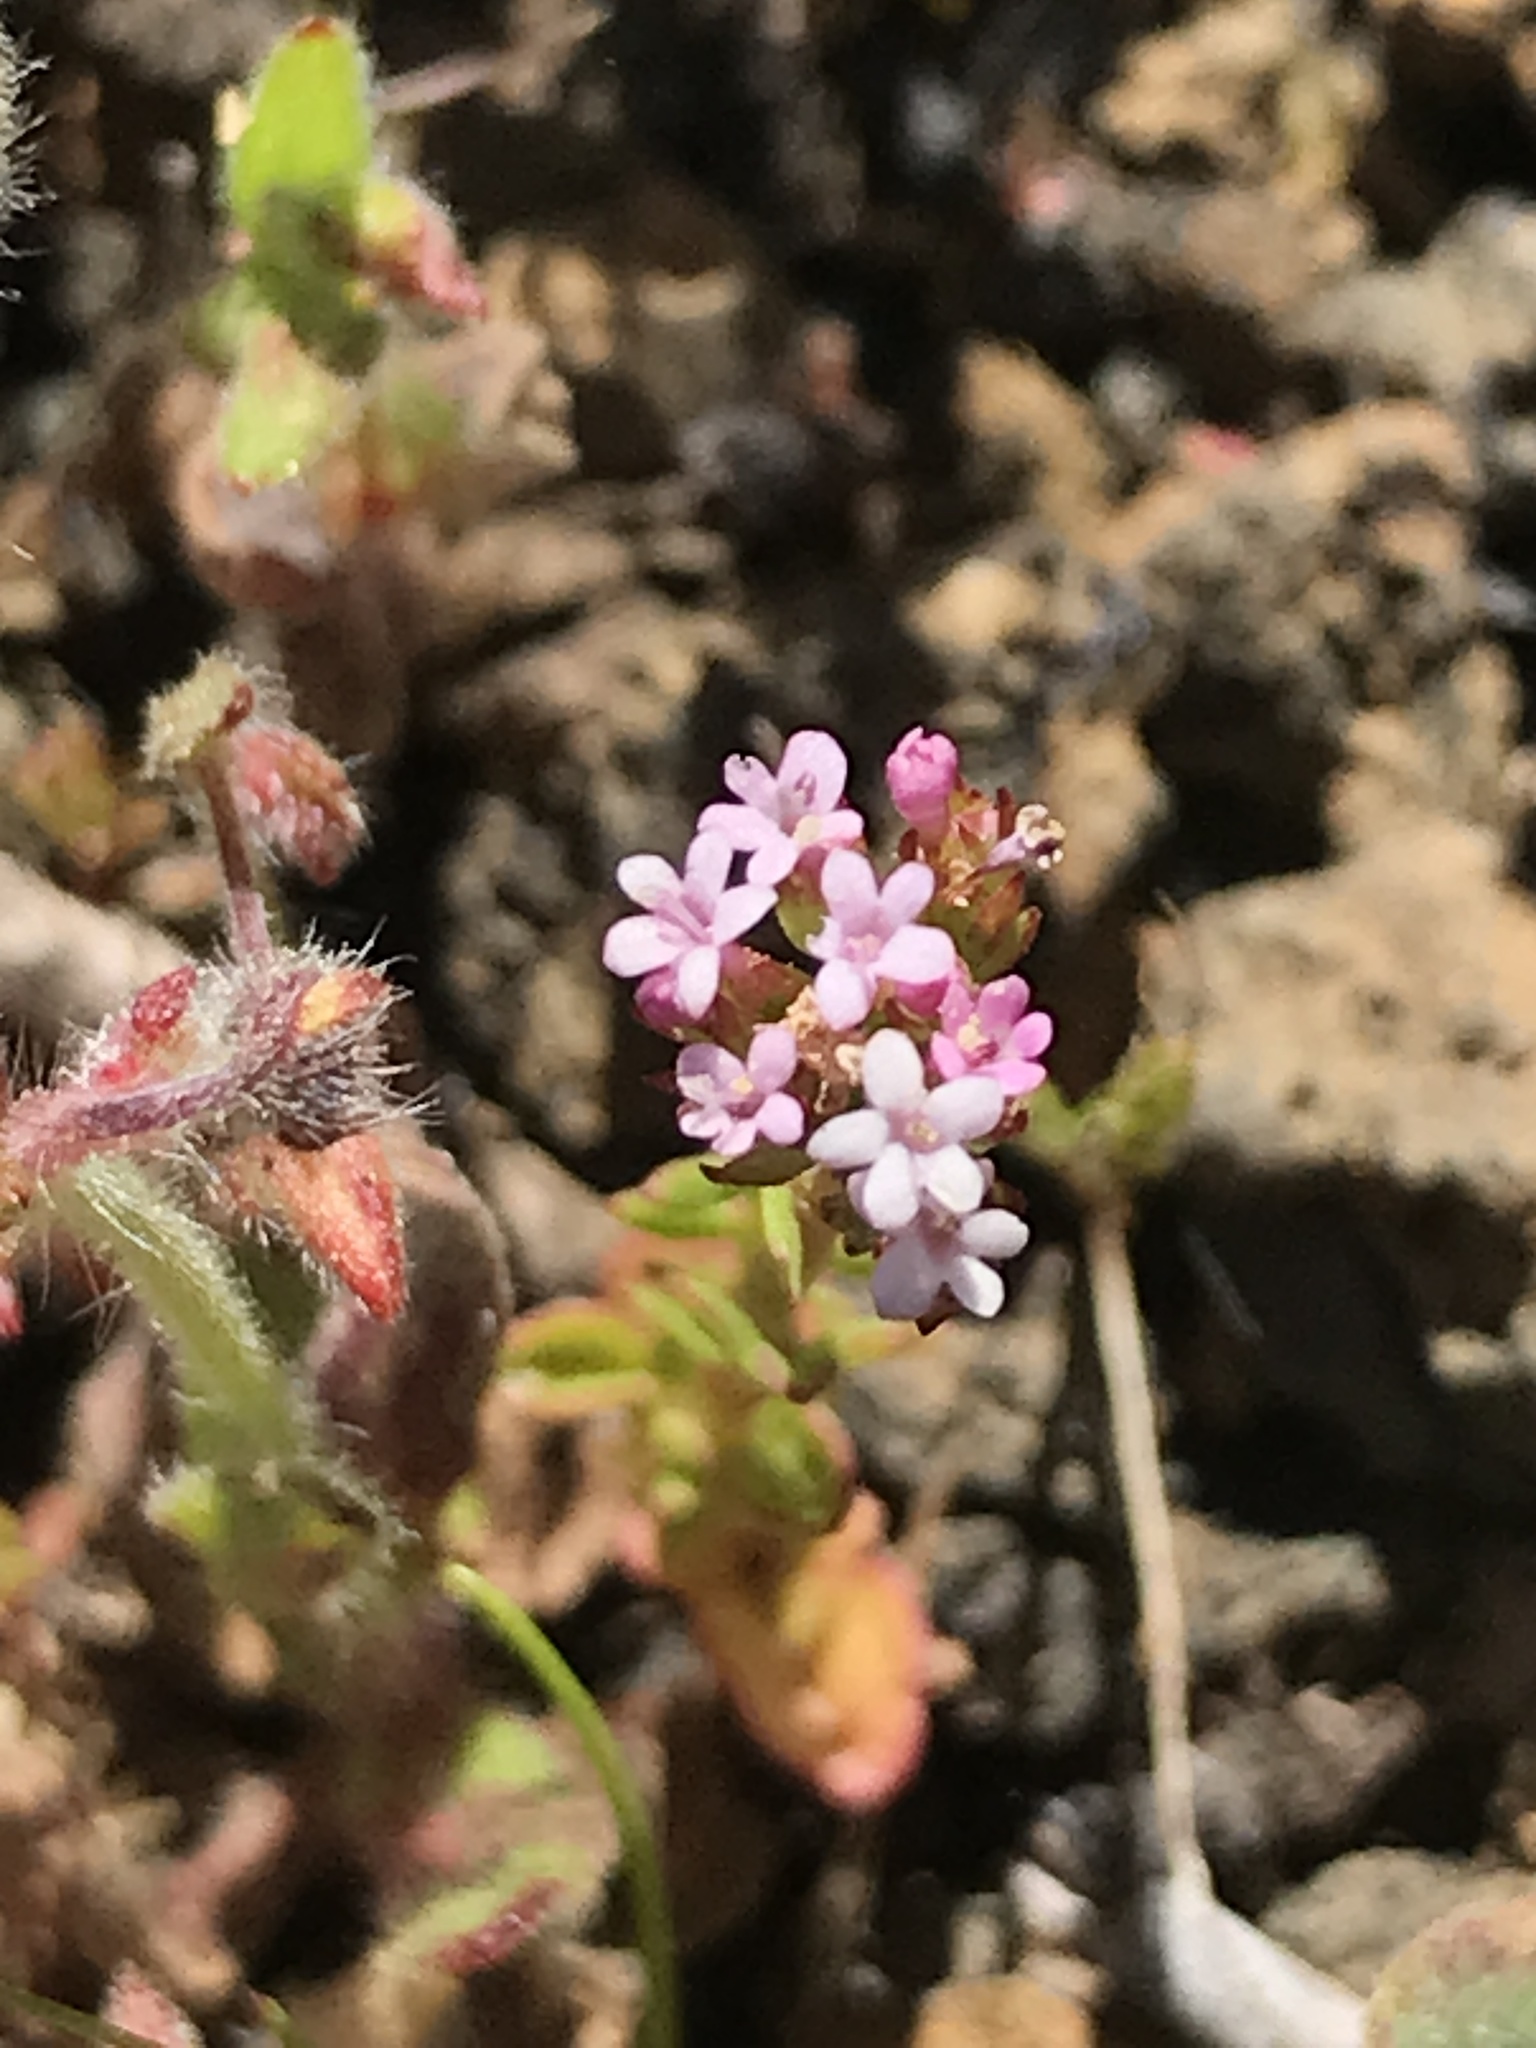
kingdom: Plantae
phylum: Tracheophyta
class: Magnoliopsida
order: Dipsacales
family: Caprifoliaceae
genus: Centranthus
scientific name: Centranthus calcitrapae
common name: Annual valerian
